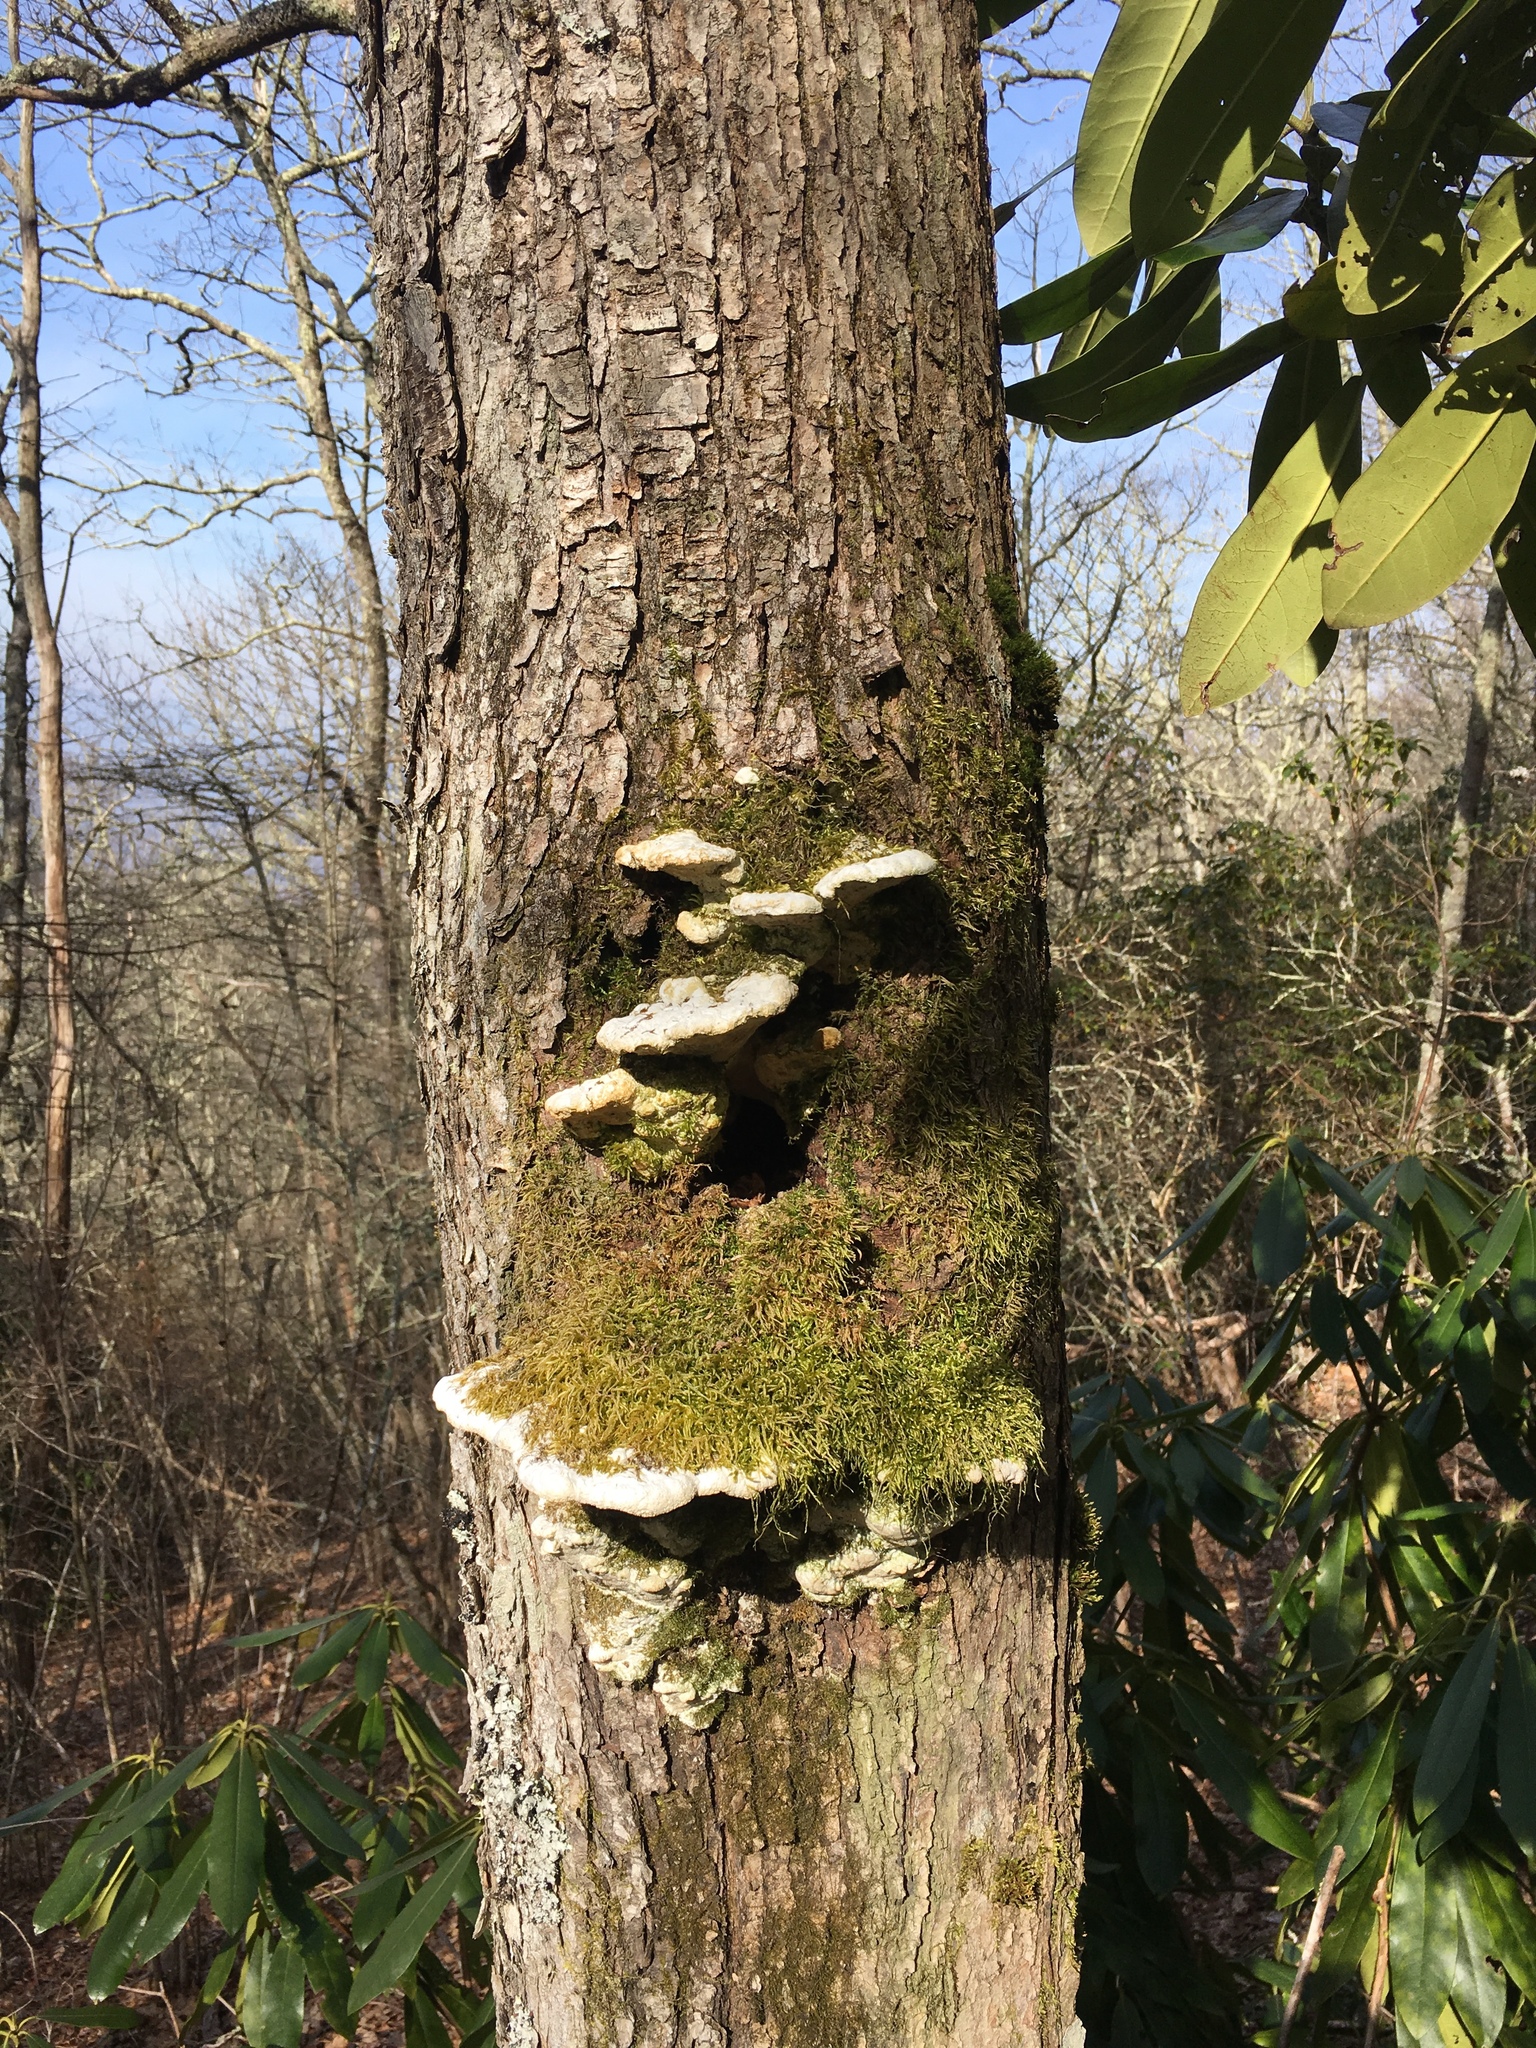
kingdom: Fungi
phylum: Basidiomycota
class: Agaricomycetes
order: Hymenochaetales
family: Oxyporaceae
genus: Oxyporus
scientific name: Oxyporus populinus
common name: Poplar bracket
